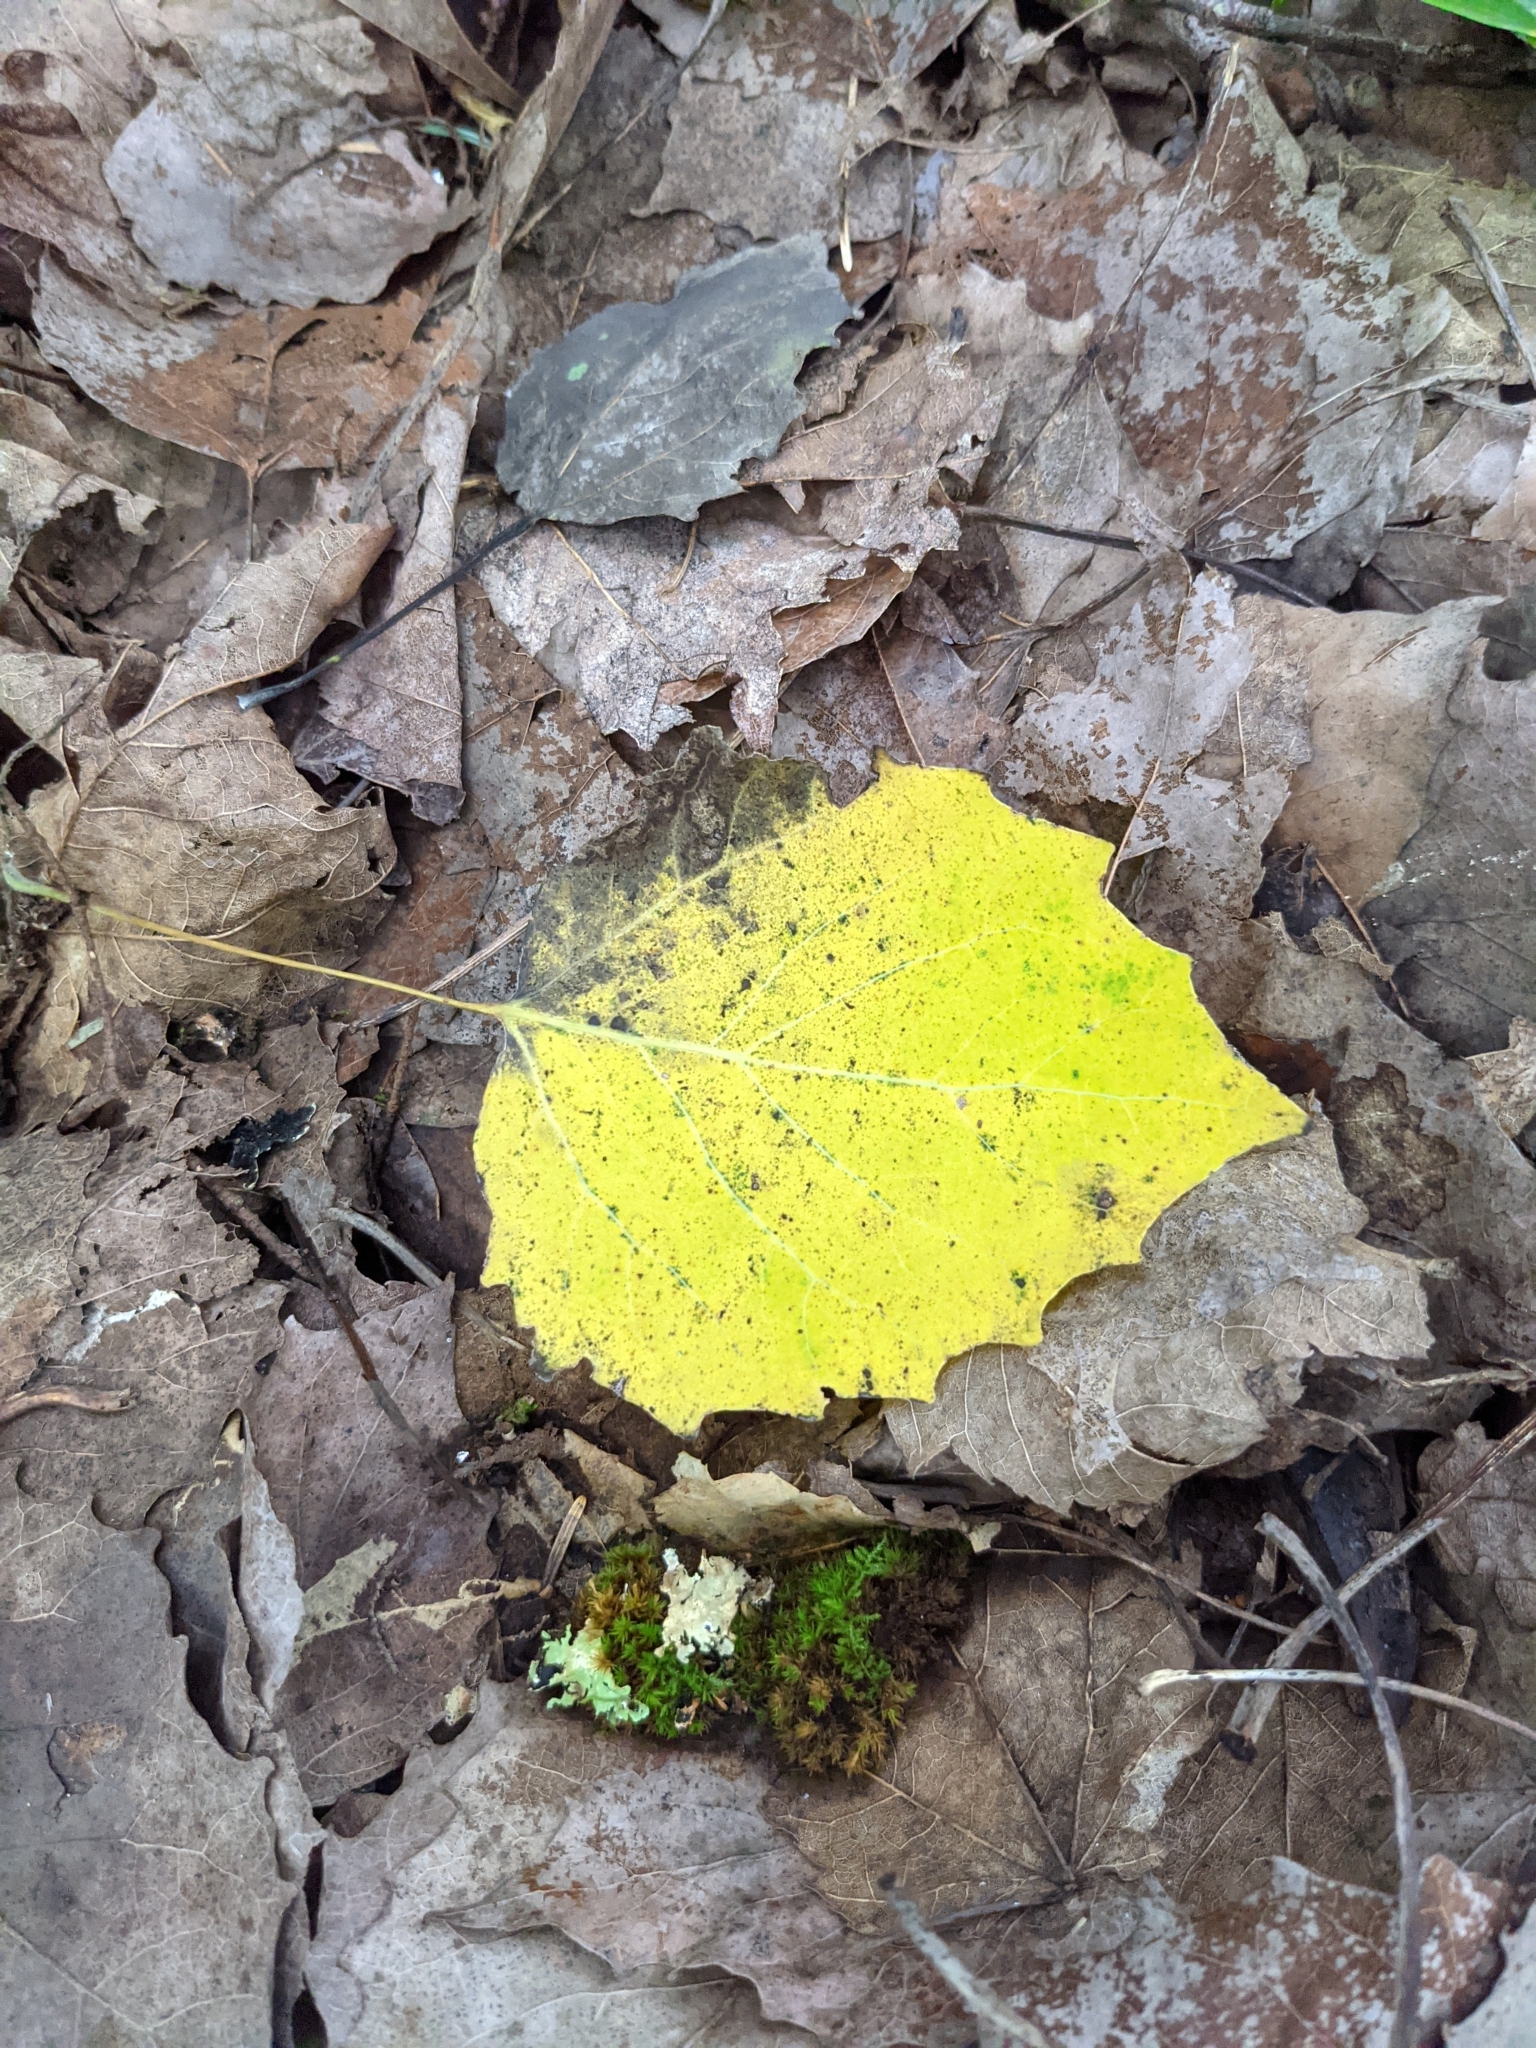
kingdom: Plantae
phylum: Tracheophyta
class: Magnoliopsida
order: Malpighiales
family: Salicaceae
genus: Populus
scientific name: Populus grandidentata
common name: Bigtooth aspen
